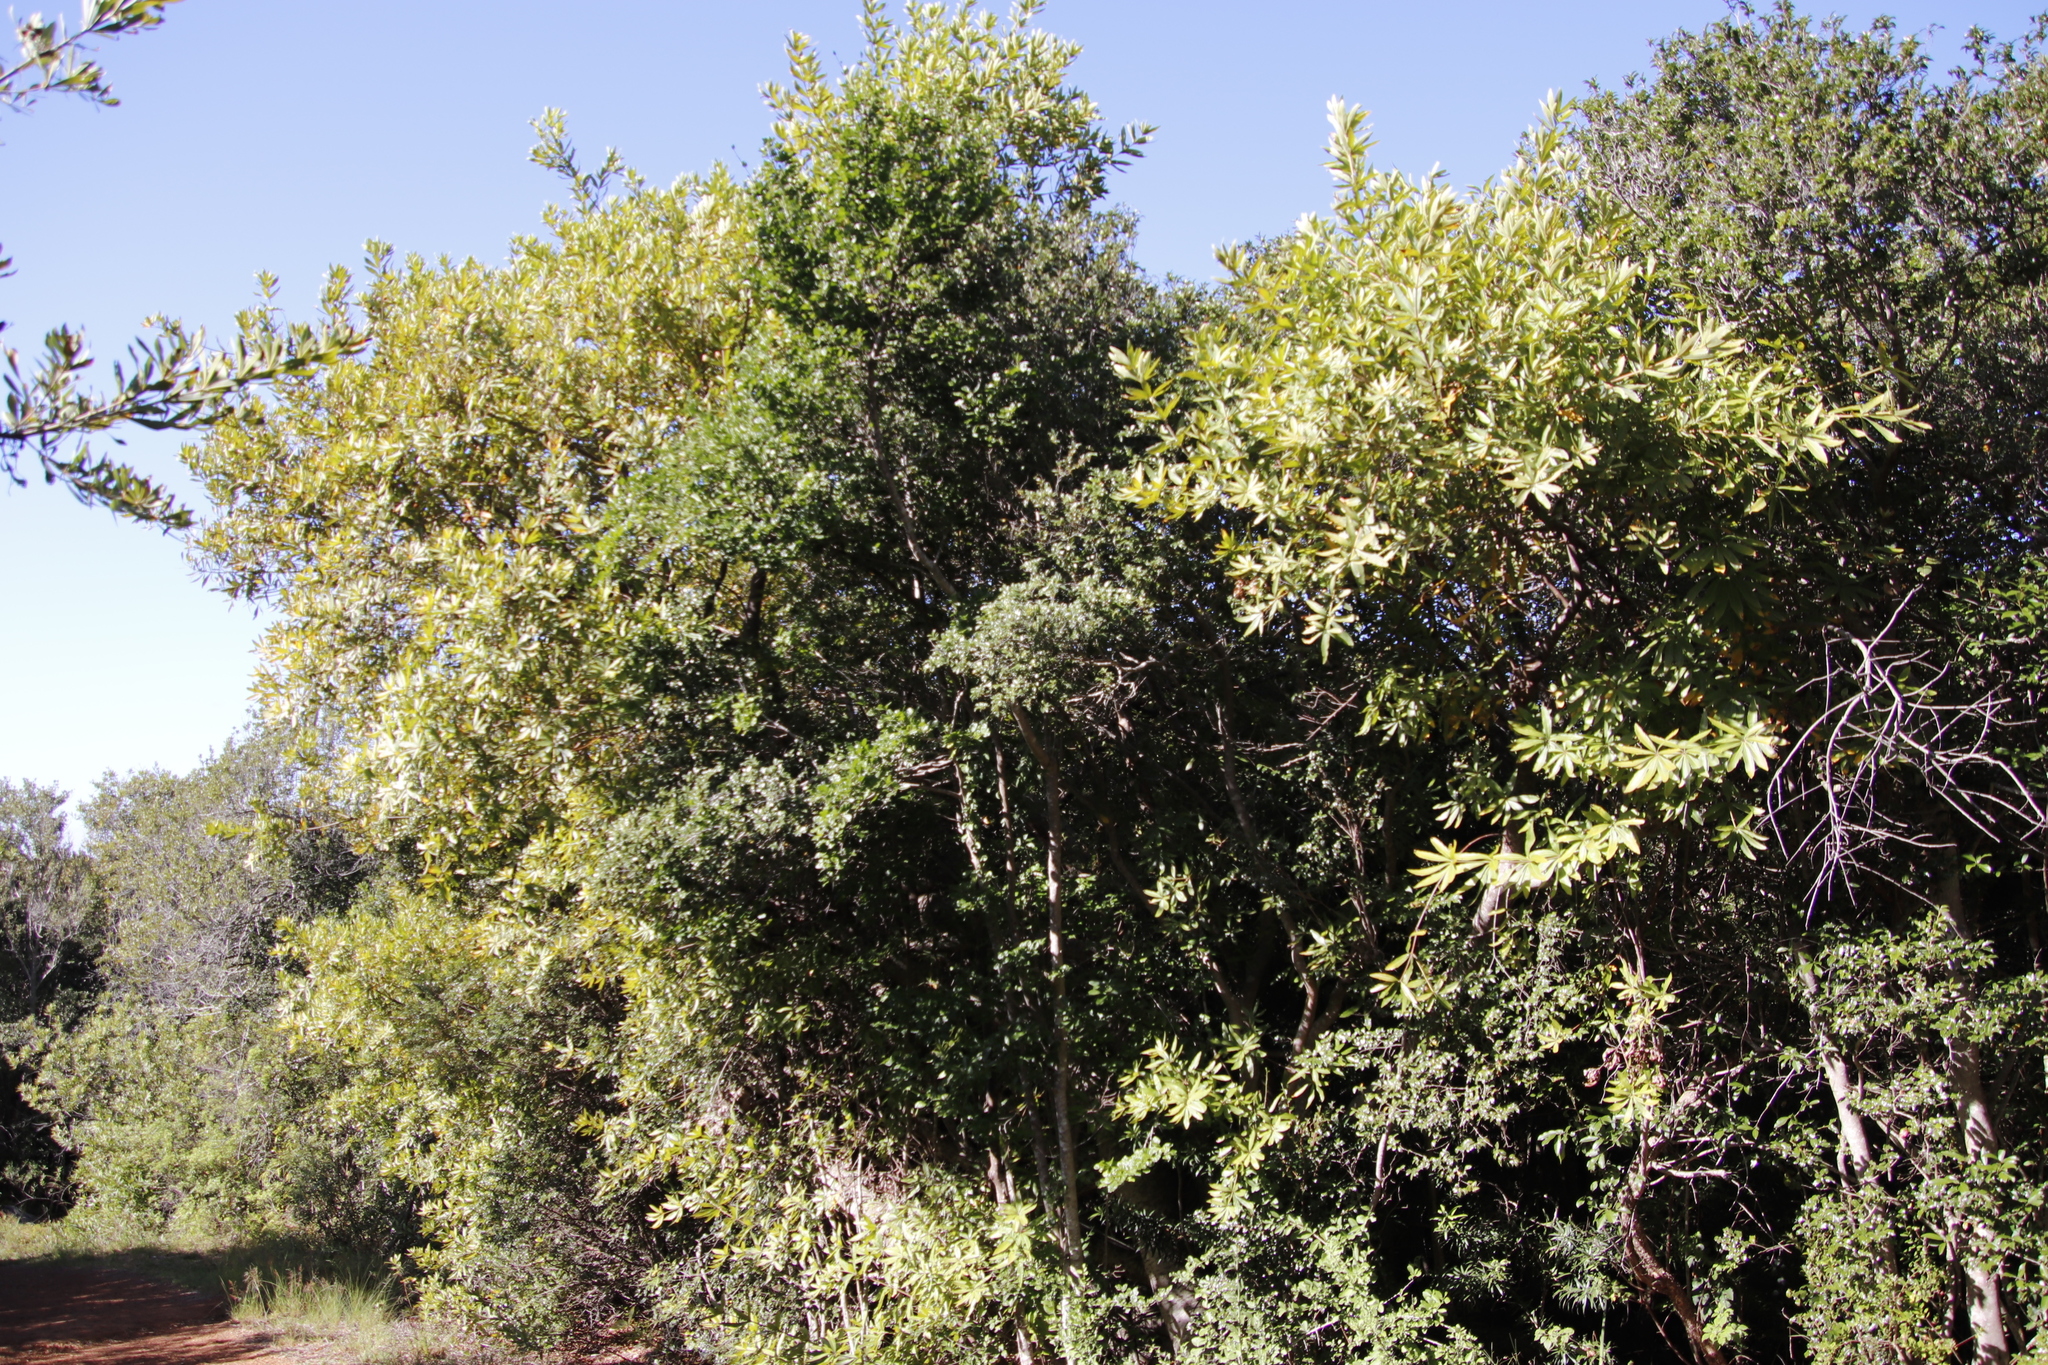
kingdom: Plantae
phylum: Tracheophyta
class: Magnoliopsida
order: Proteales
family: Proteaceae
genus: Brabejum
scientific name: Brabejum stellatifolium
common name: Wild almond
